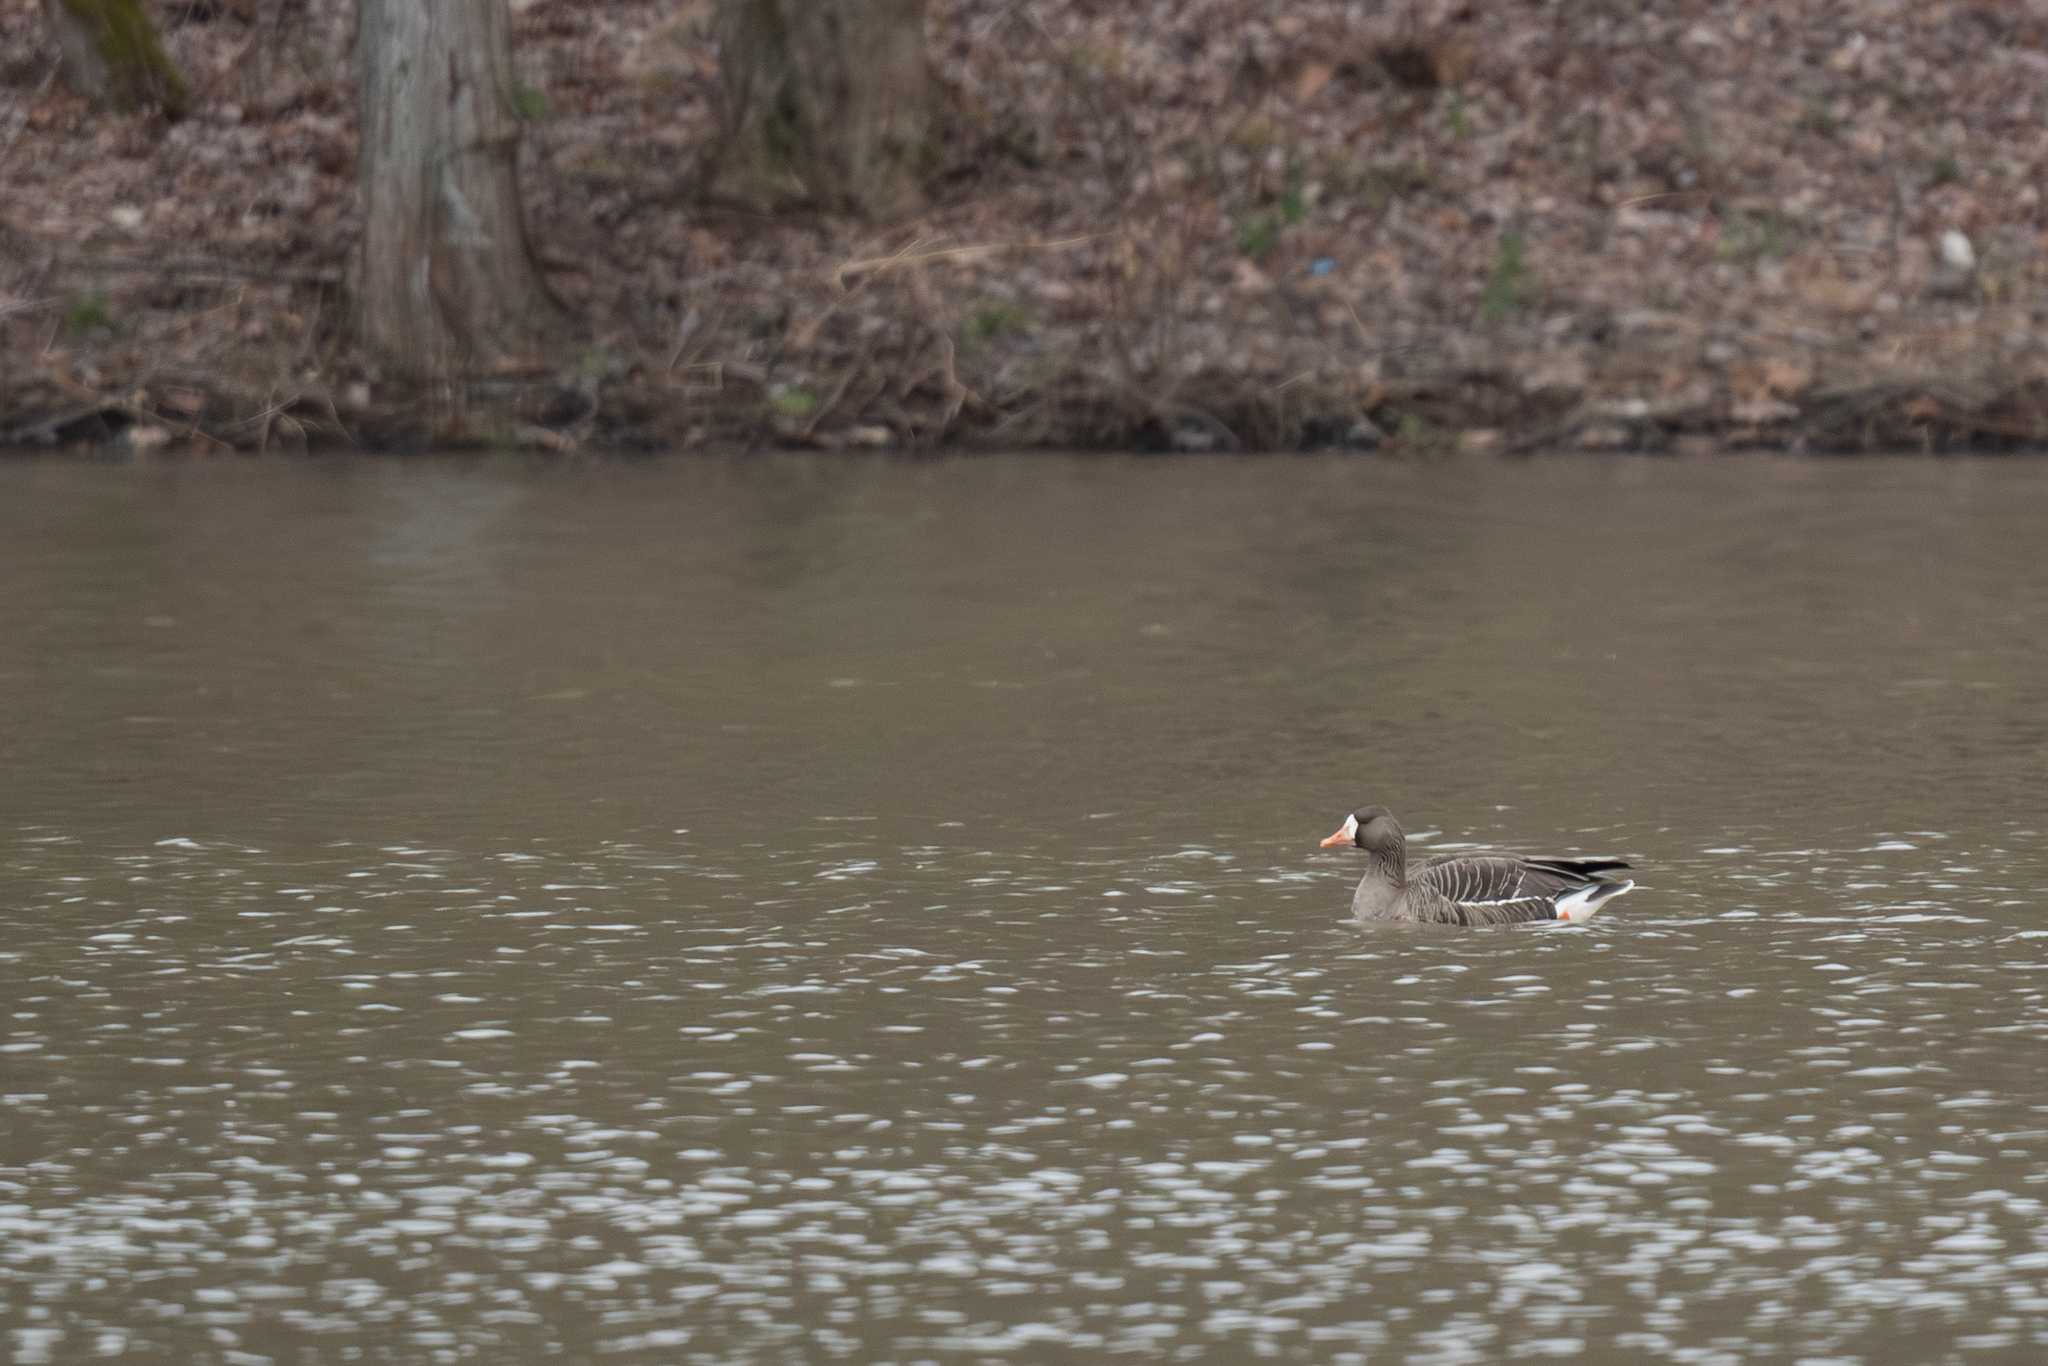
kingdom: Animalia
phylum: Chordata
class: Aves
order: Anseriformes
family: Anatidae
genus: Anser
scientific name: Anser albifrons
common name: Greater white-fronted goose
